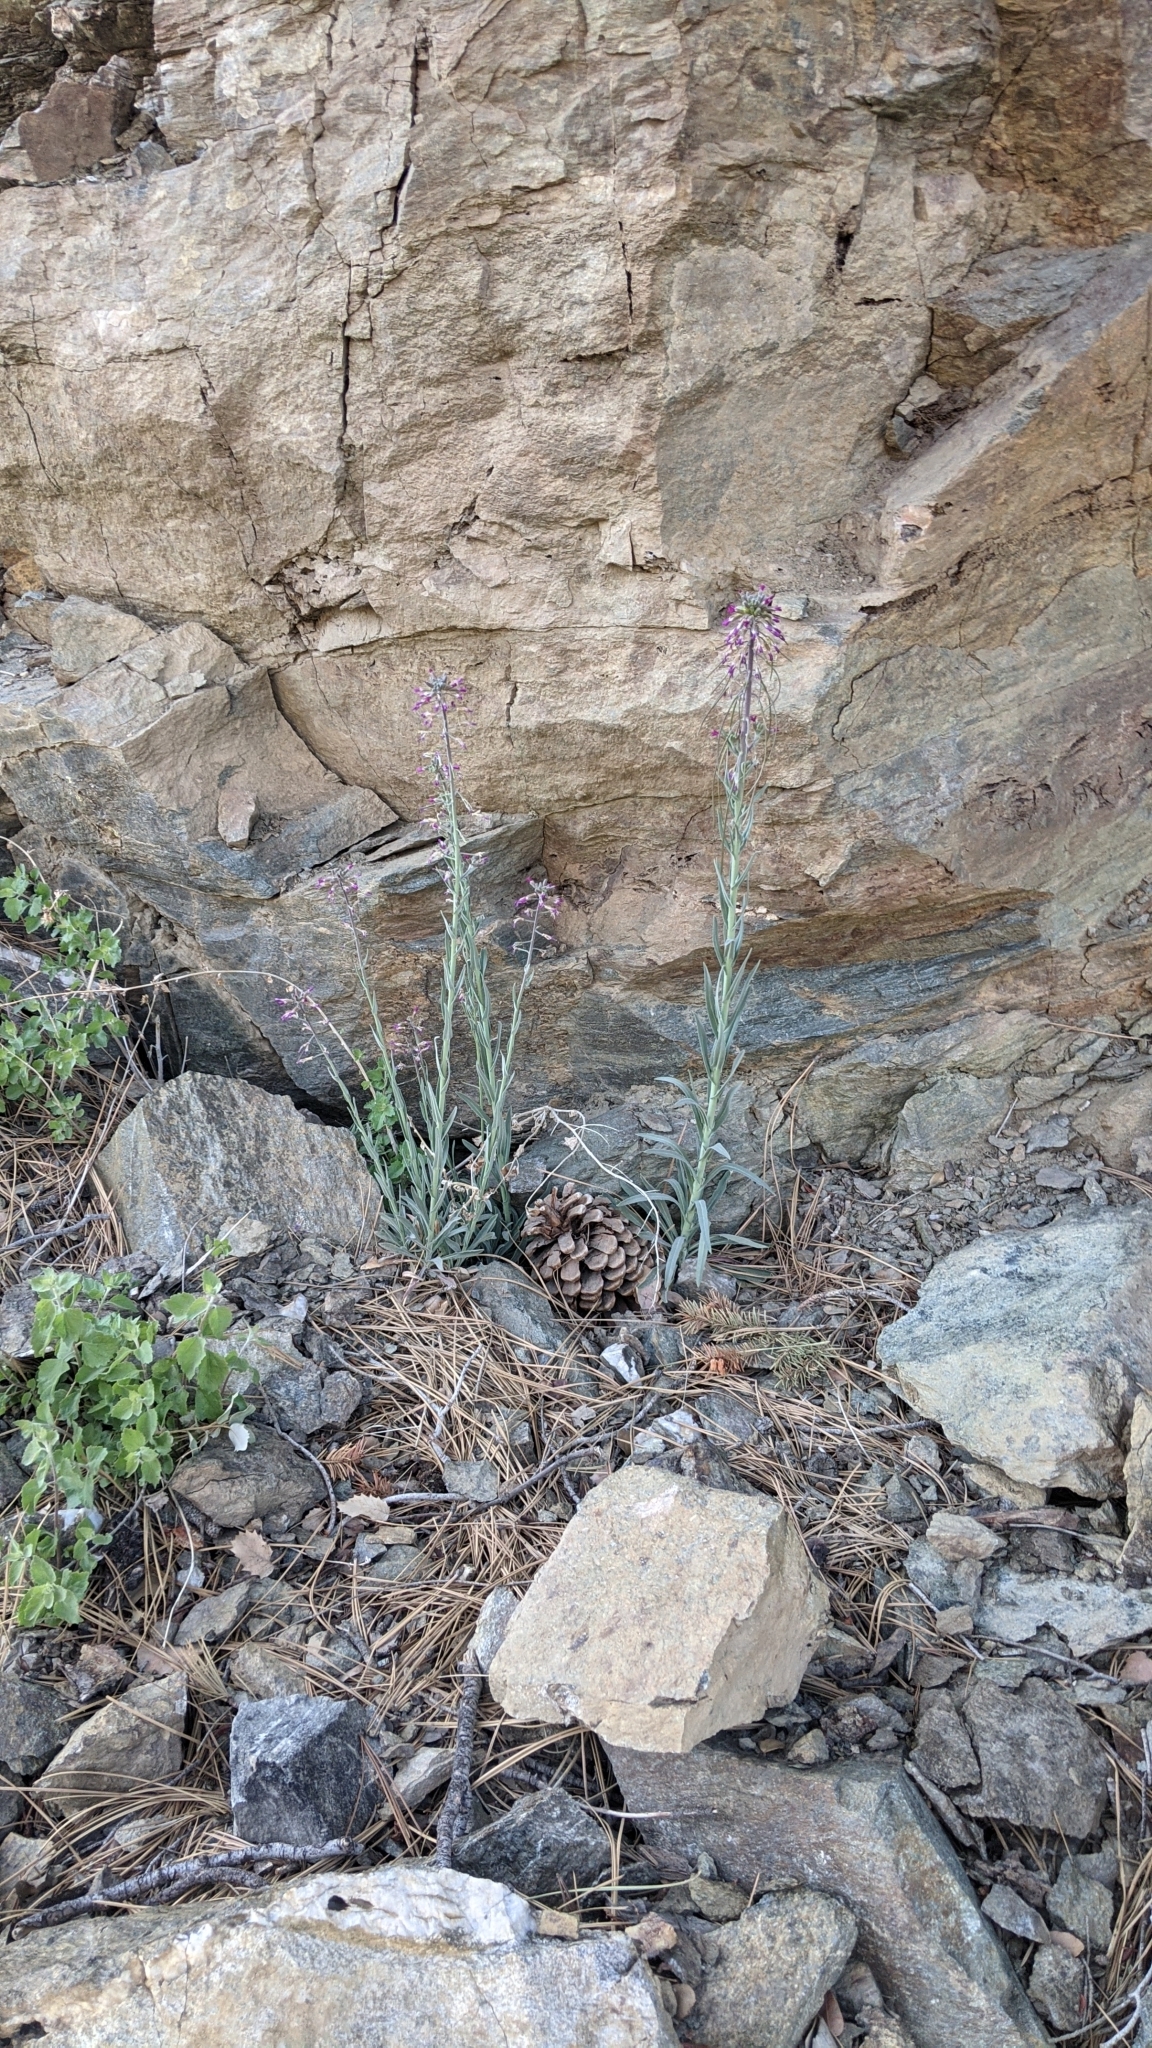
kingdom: Plantae
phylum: Tracheophyta
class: Magnoliopsida
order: Brassicales
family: Brassicaceae
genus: Boechera
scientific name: Boechera californica
